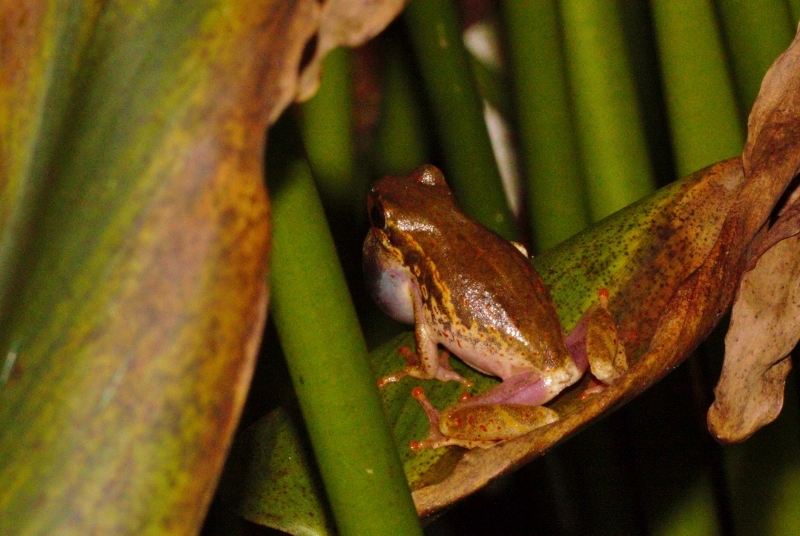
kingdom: Animalia
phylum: Chordata
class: Amphibia
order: Anura
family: Hyperoliidae
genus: Hyperolius
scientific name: Hyperolius marmoratus
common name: Painted reed frog
